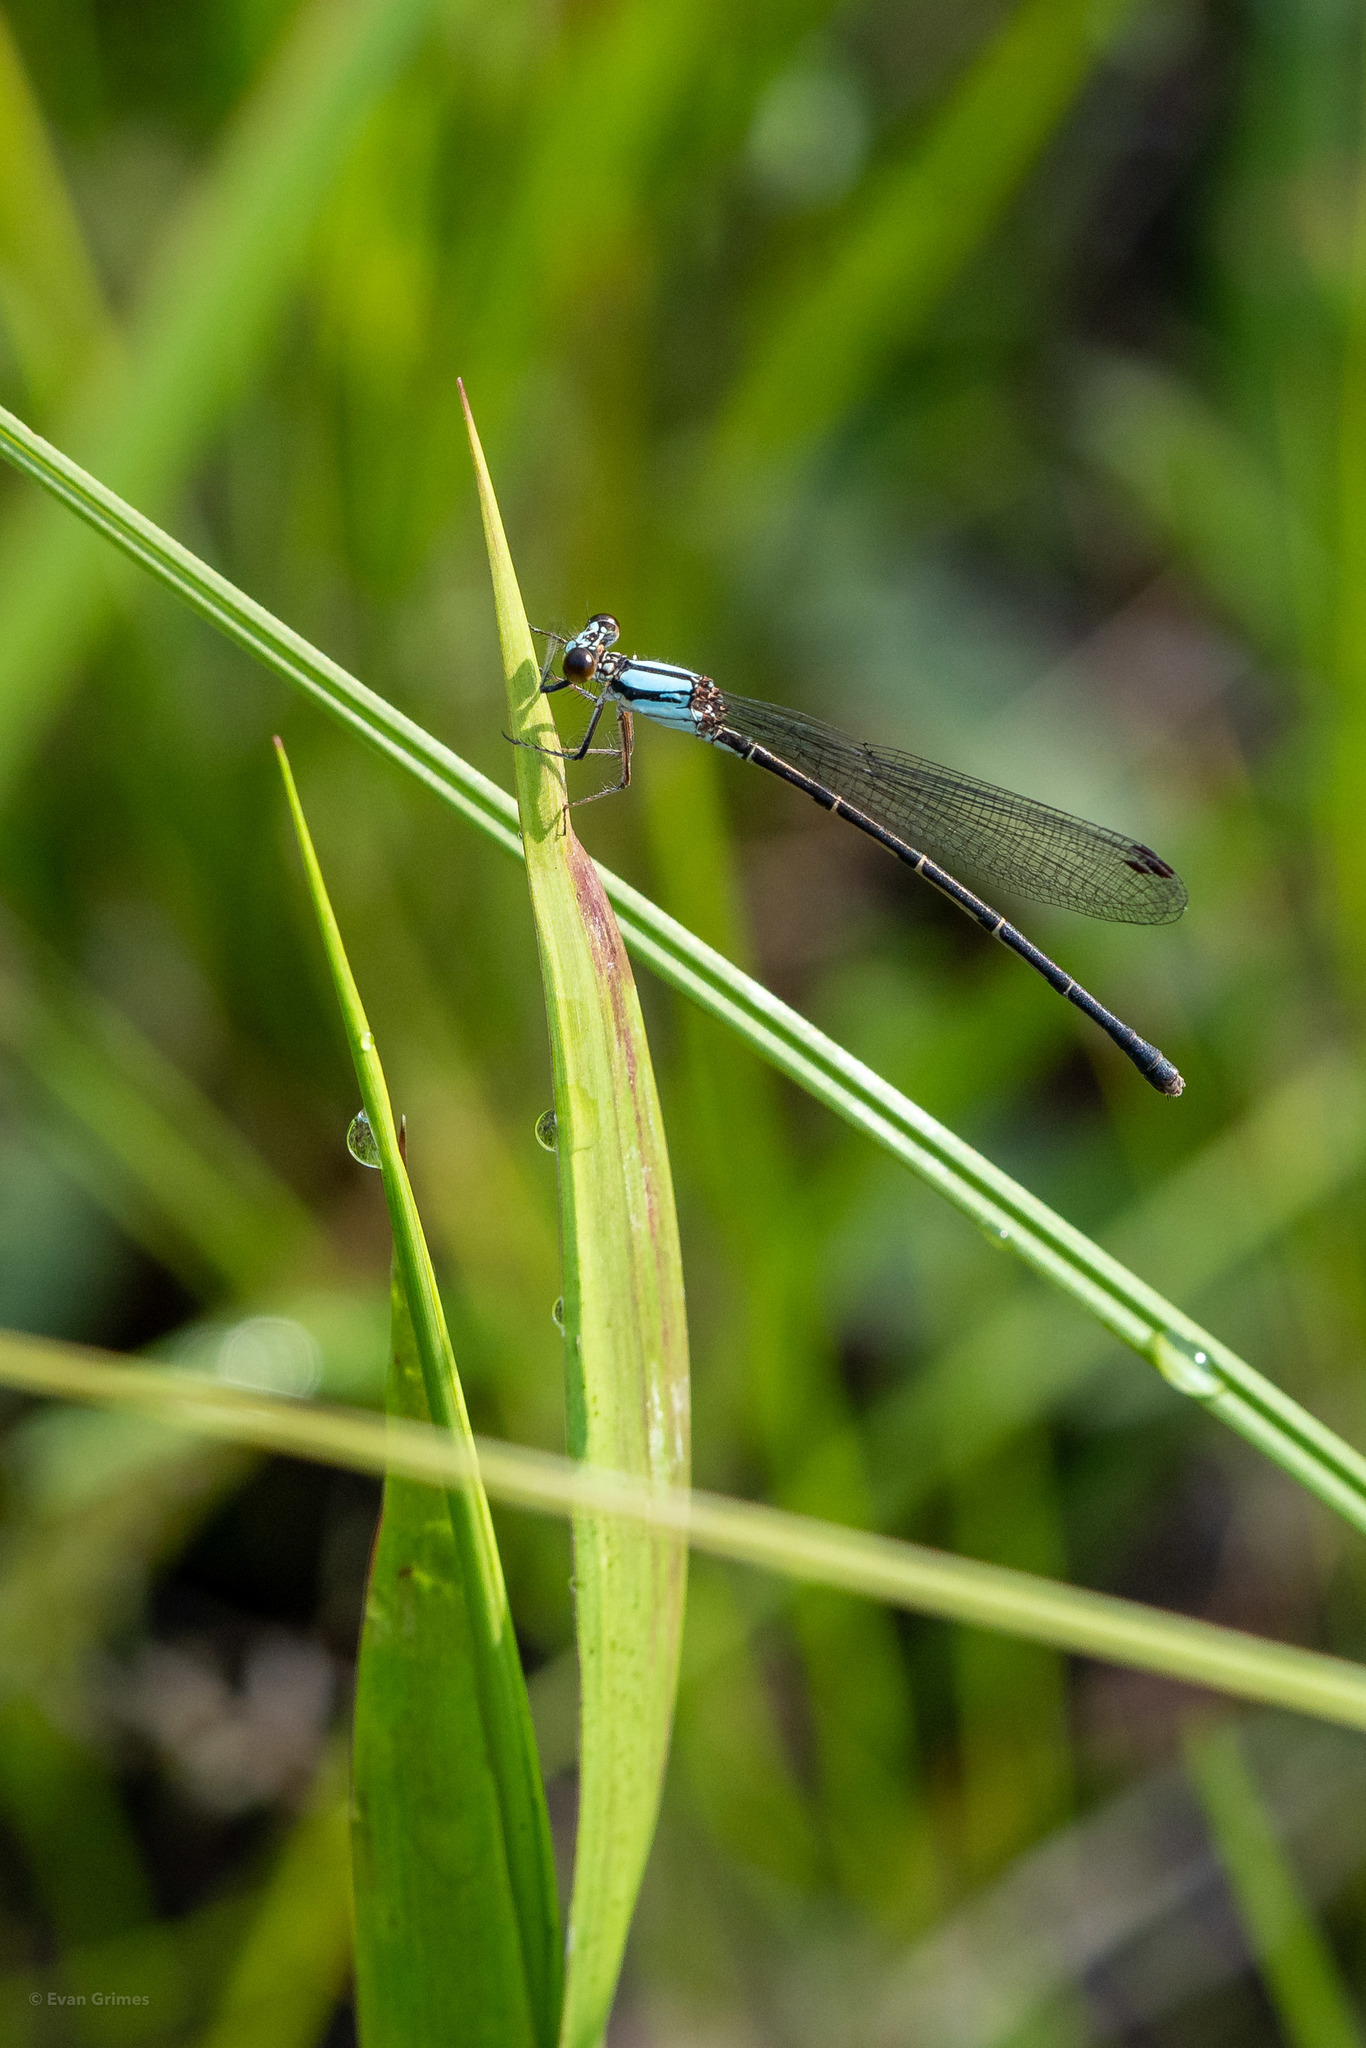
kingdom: Animalia
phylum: Arthropoda
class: Insecta
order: Odonata
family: Coenagrionidae
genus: Argia
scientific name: Argia tibialis
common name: Blue-tipped dancer
